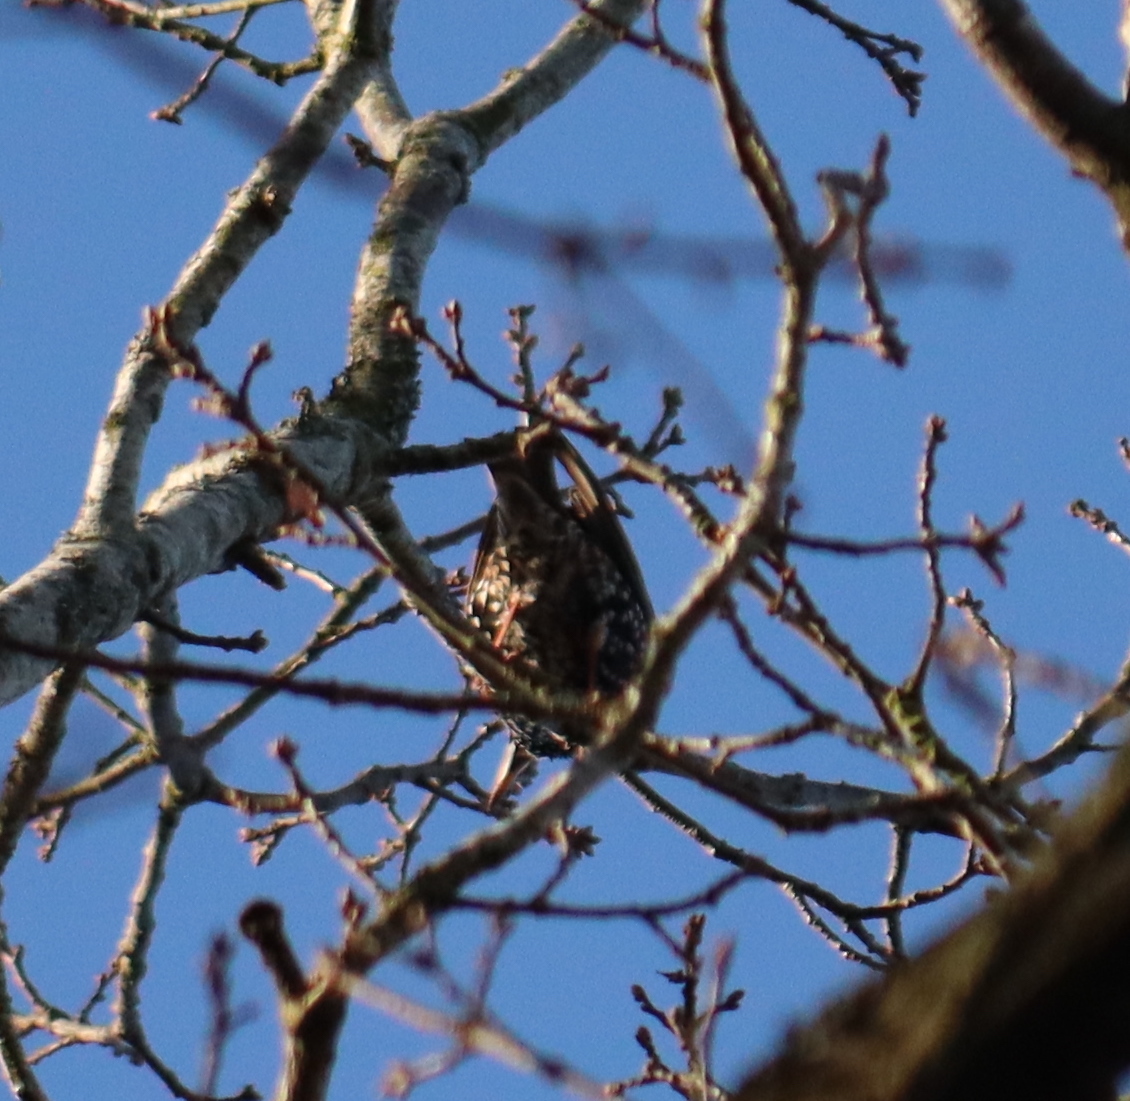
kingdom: Animalia
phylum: Chordata
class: Aves
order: Passeriformes
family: Sturnidae
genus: Sturnus
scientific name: Sturnus vulgaris
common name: Common starling
